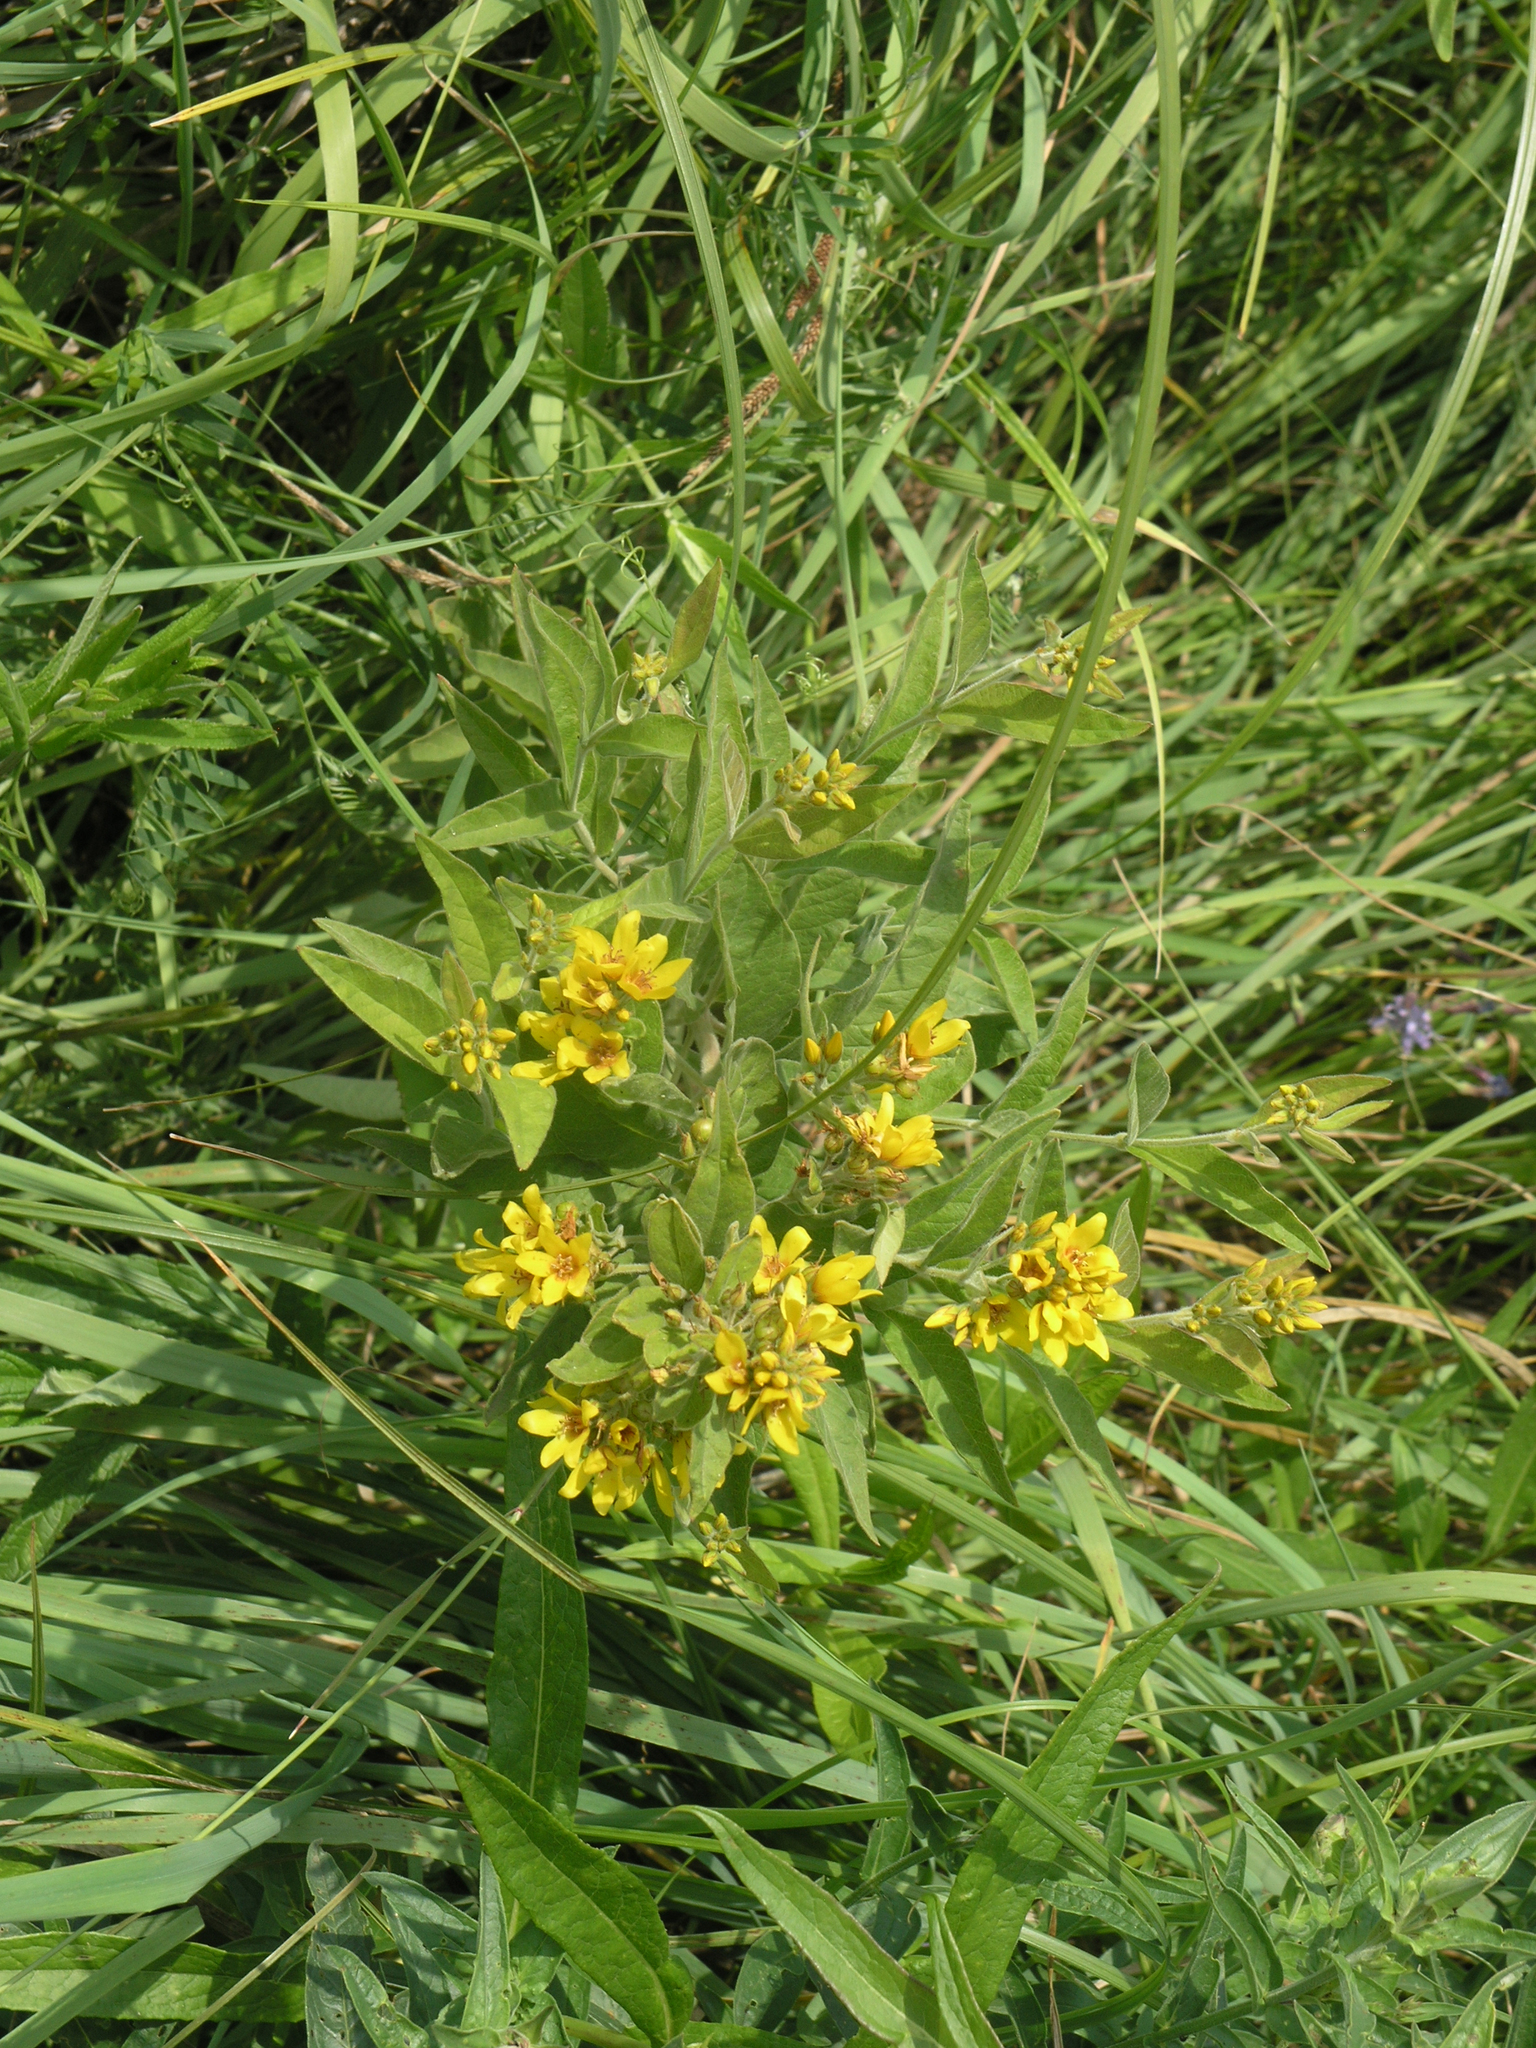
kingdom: Plantae
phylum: Tracheophyta
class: Magnoliopsida
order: Ericales
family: Primulaceae
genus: Lysimachia
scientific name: Lysimachia vulgaris
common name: Yellow loosestrife
